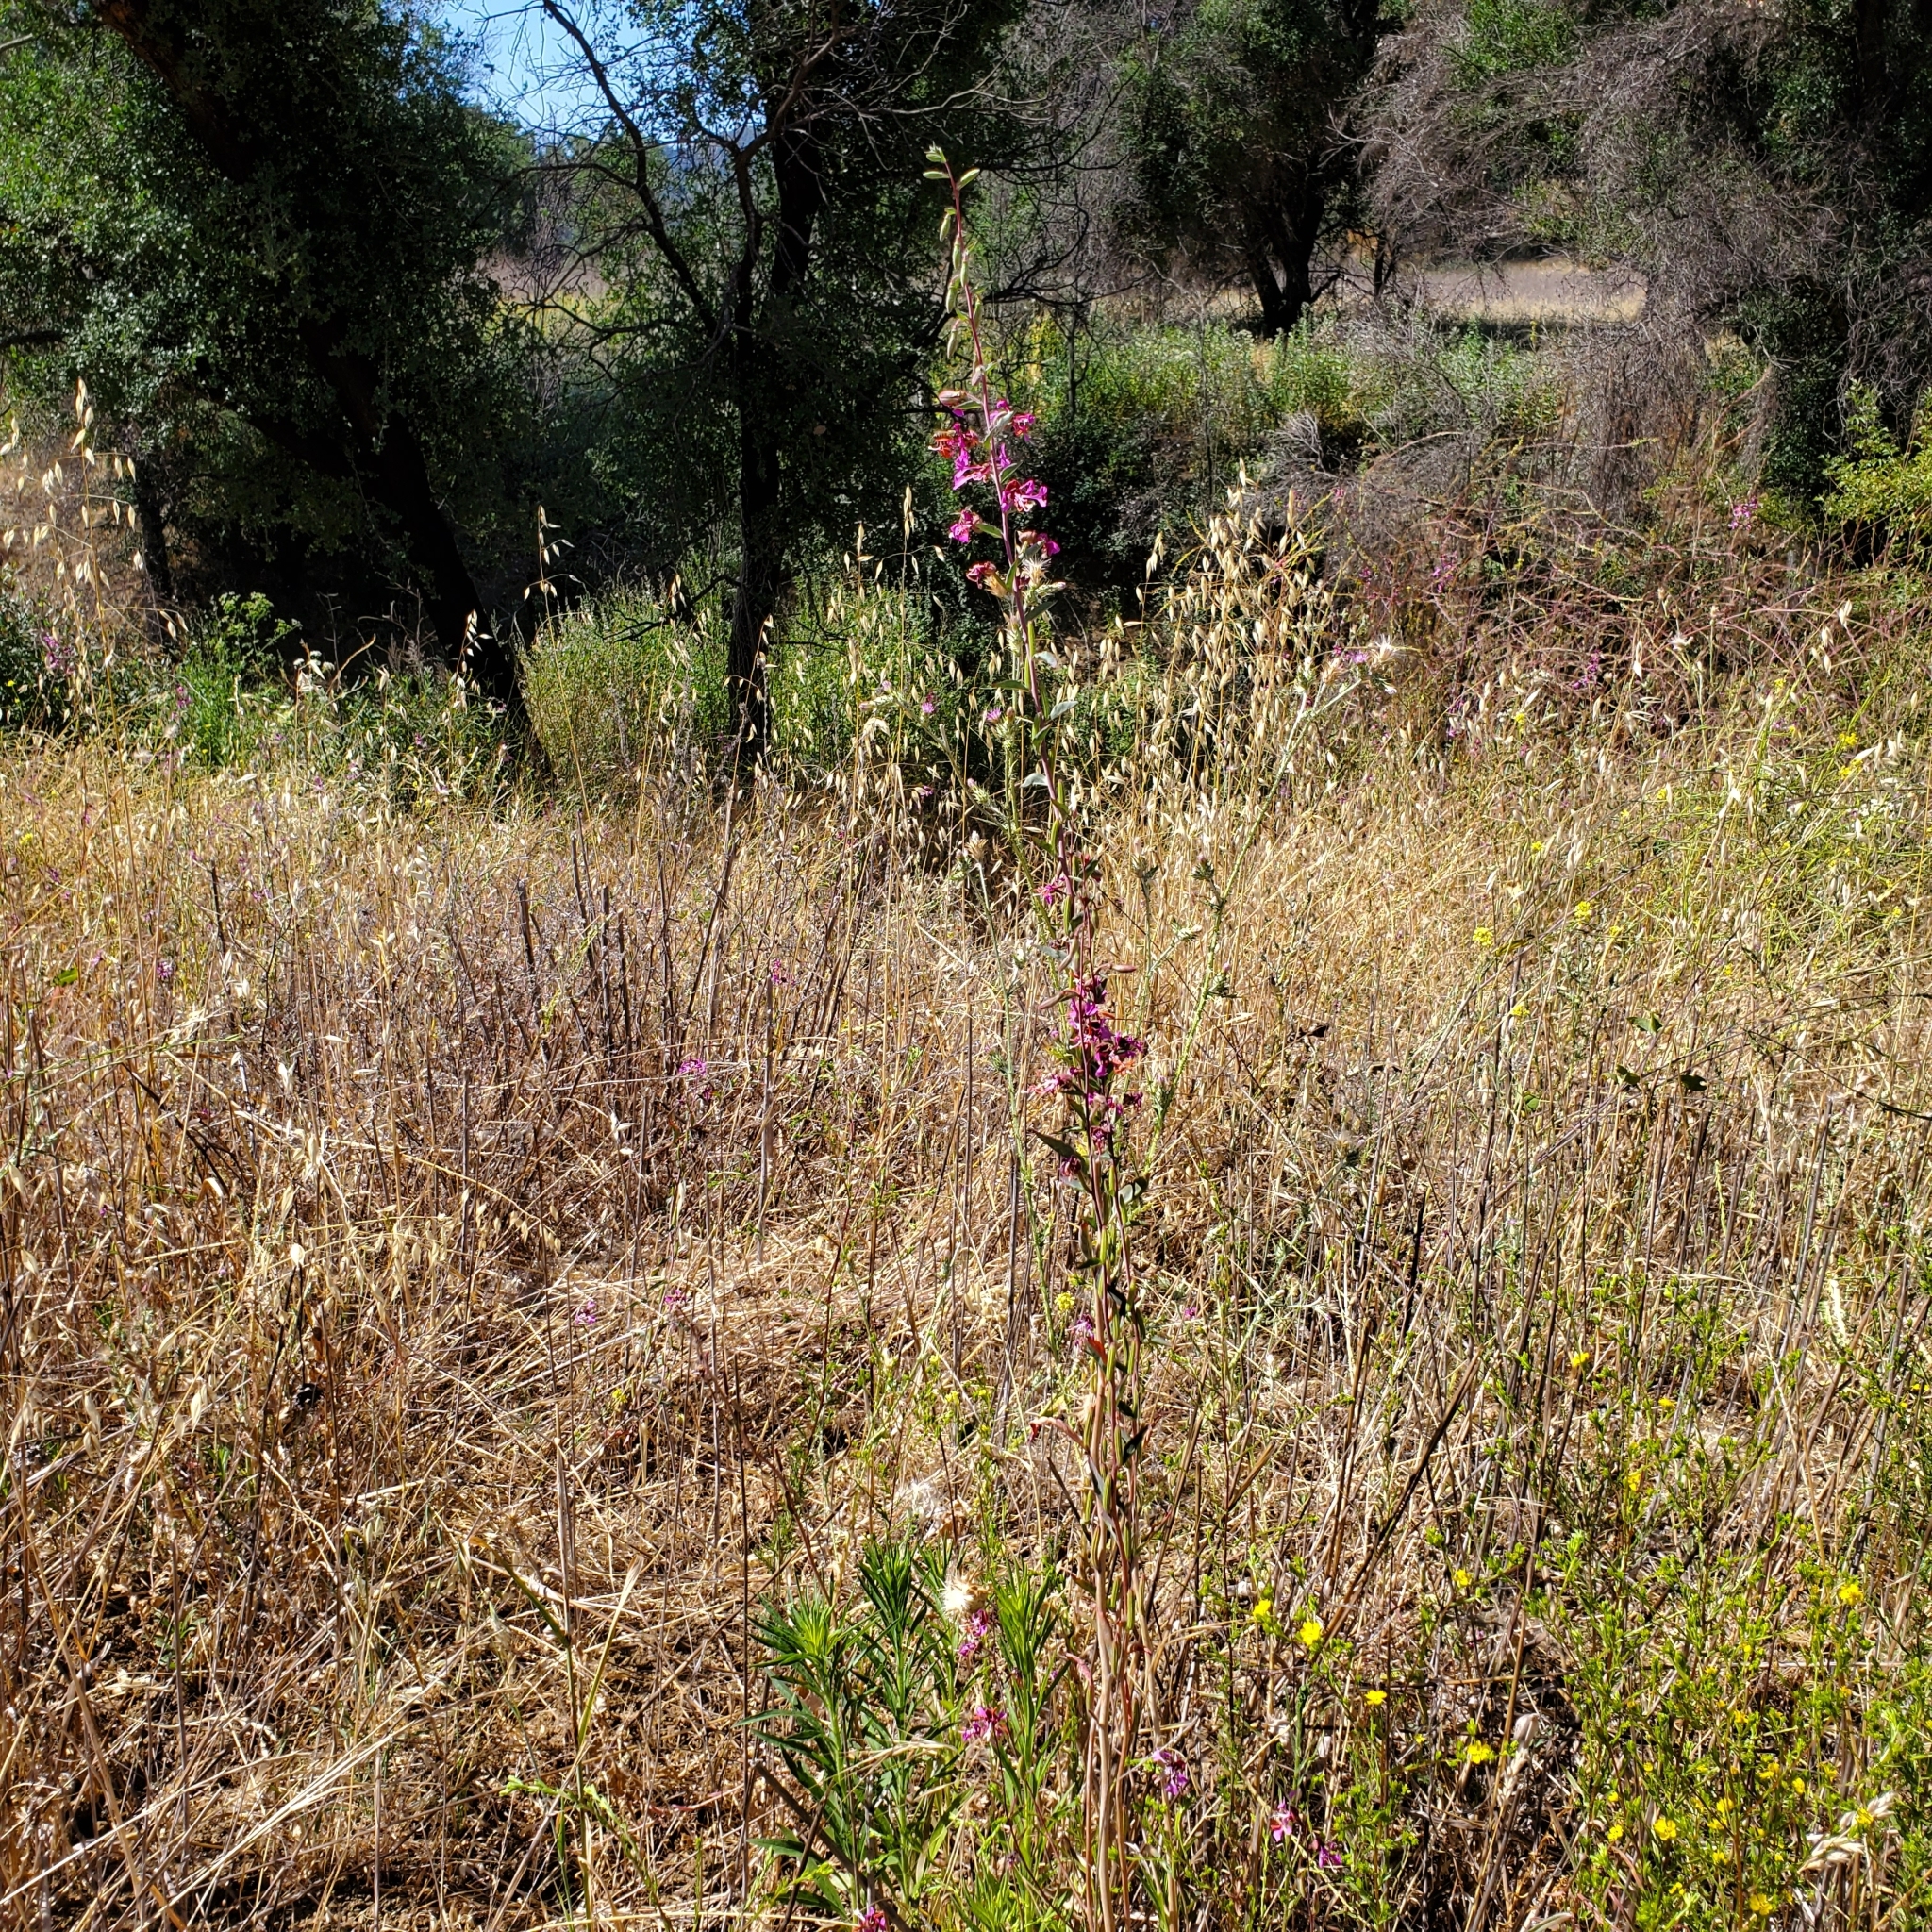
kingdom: Plantae
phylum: Tracheophyta
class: Magnoliopsida
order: Myrtales
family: Onagraceae
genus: Clarkia
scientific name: Clarkia unguiculata
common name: Clarkia
